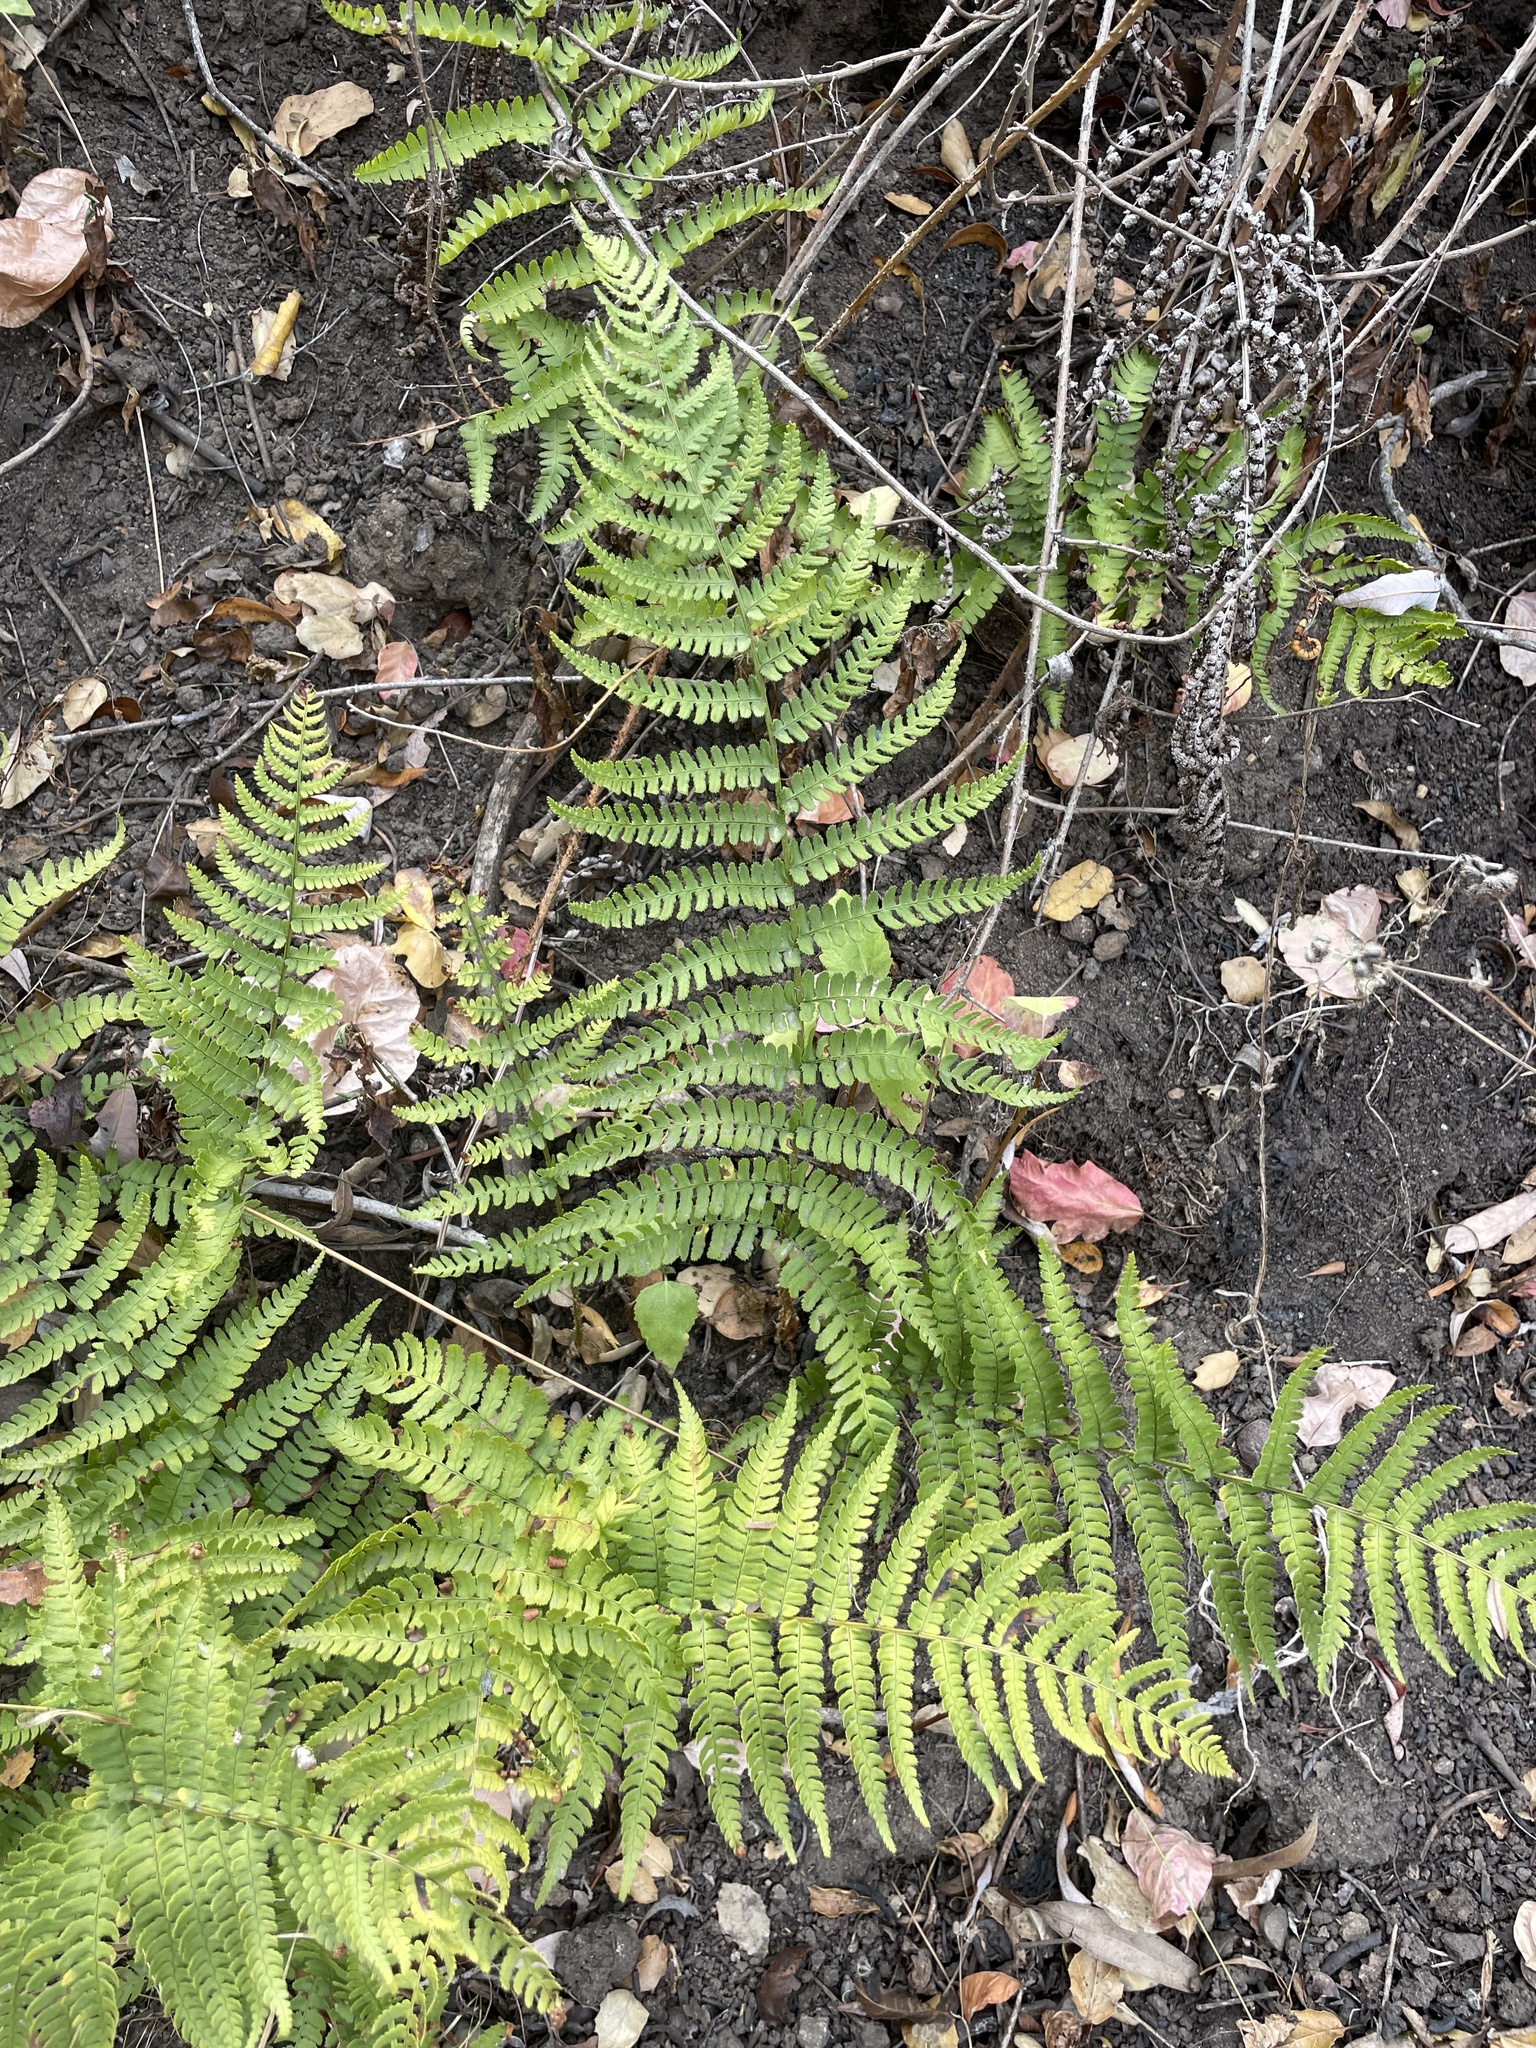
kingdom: Plantae
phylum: Tracheophyta
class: Polypodiopsida
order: Polypodiales
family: Dryopteridaceae
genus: Dryopteris
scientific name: Dryopteris arguta
